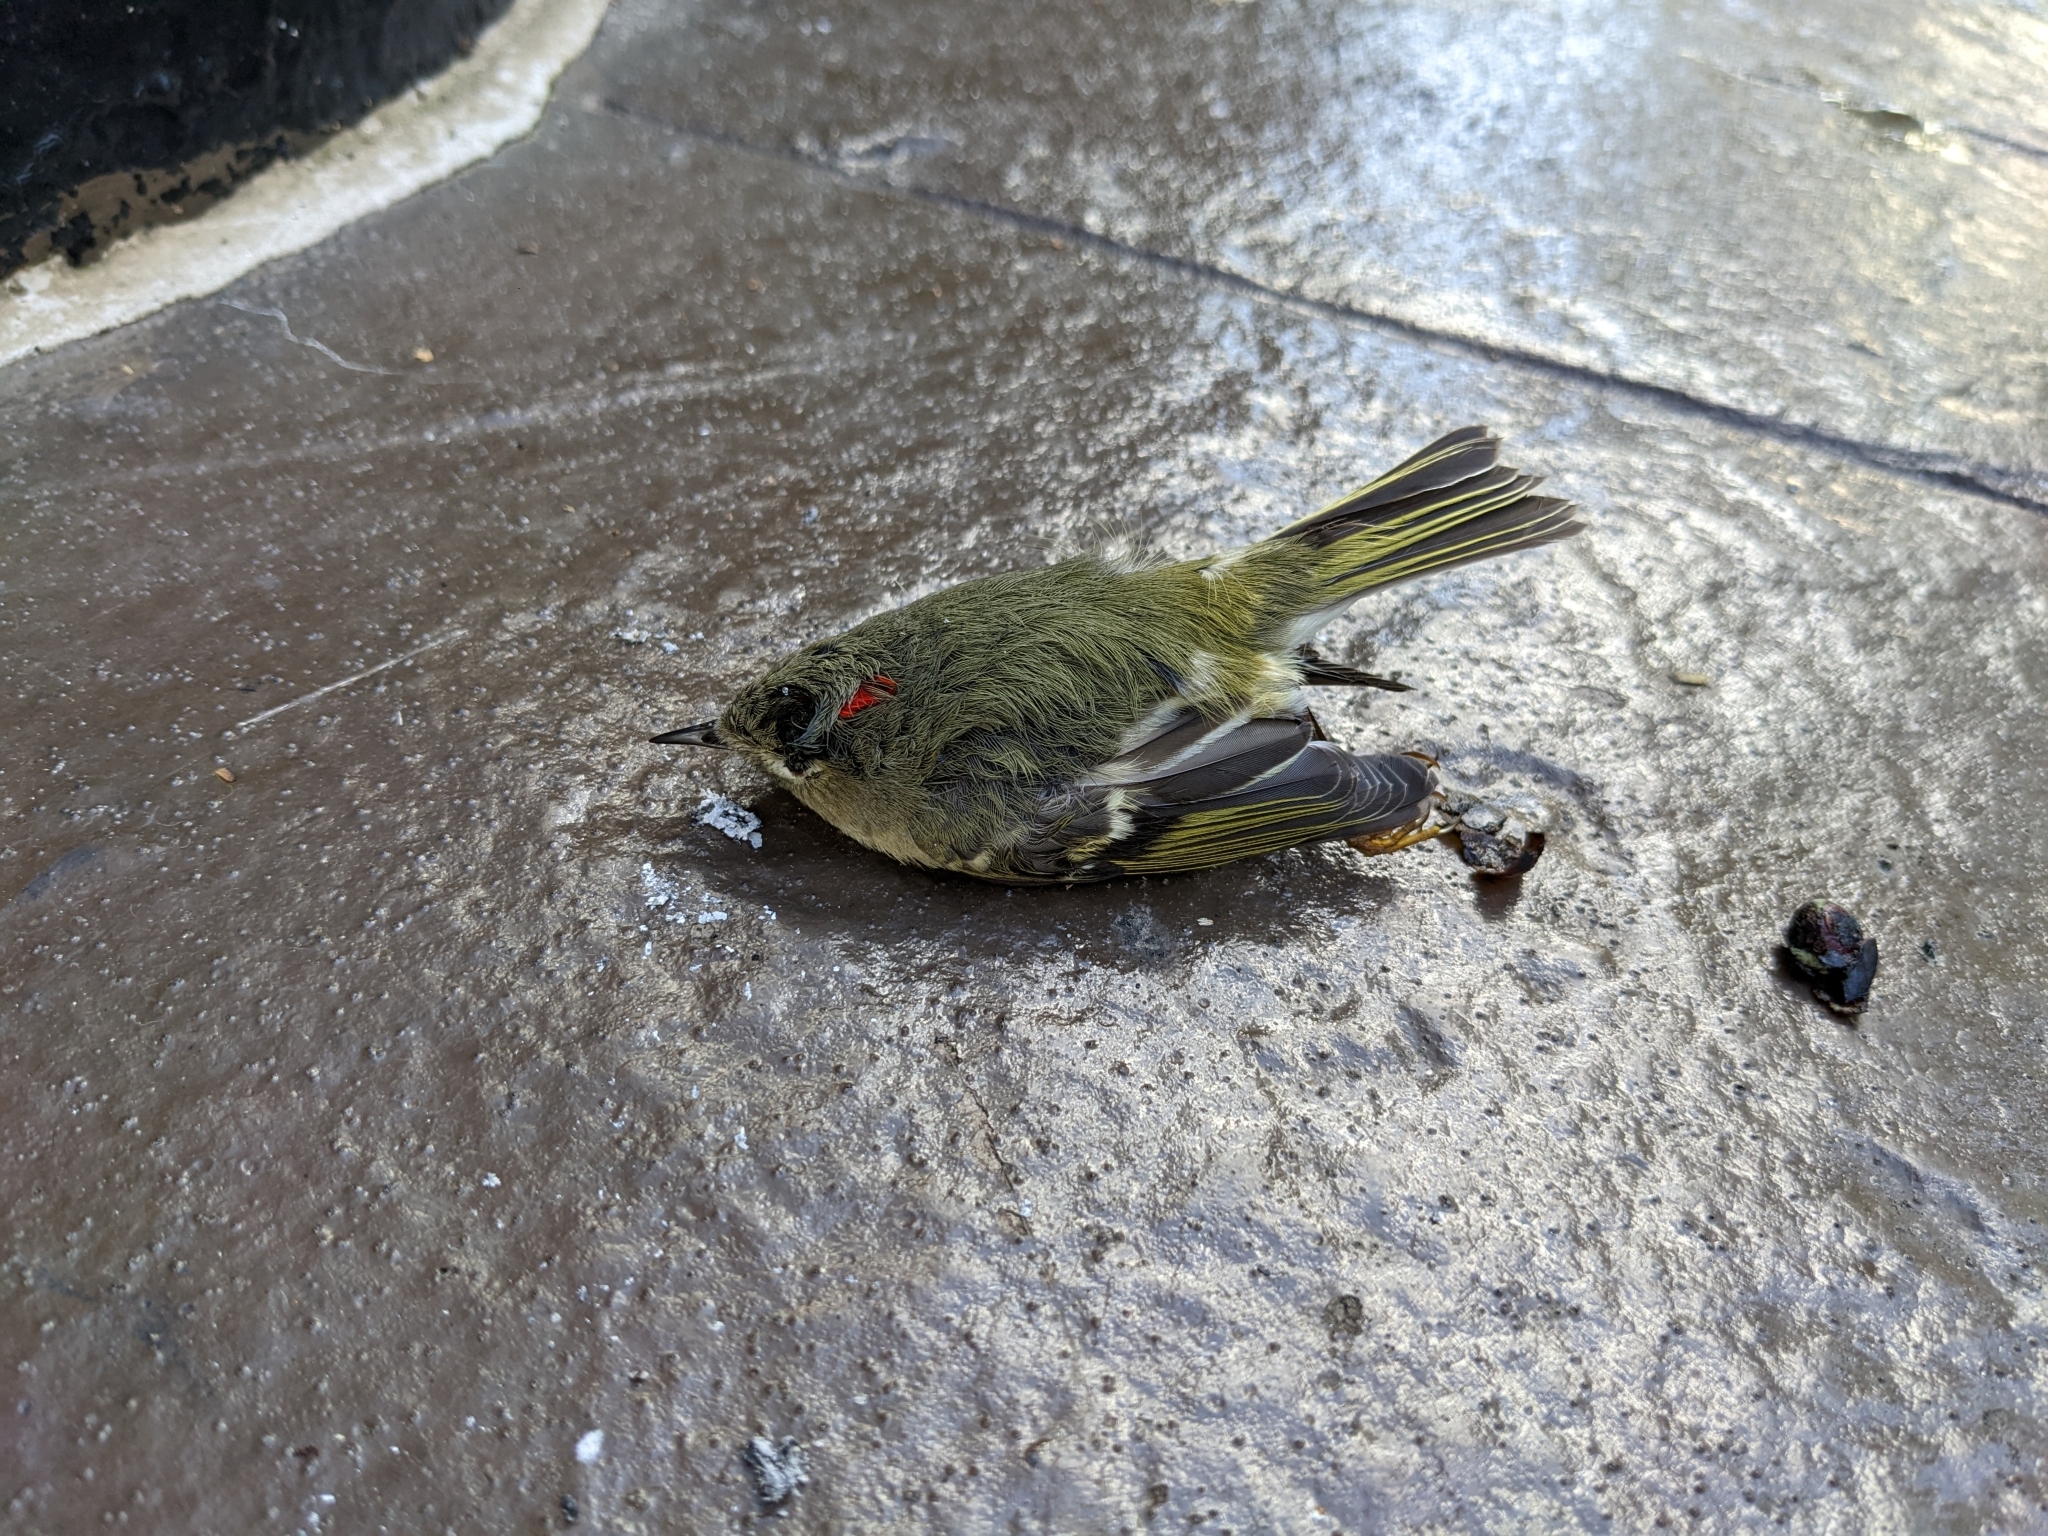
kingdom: Animalia
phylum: Chordata
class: Aves
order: Passeriformes
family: Regulidae
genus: Regulus
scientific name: Regulus calendula
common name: Ruby-crowned kinglet
